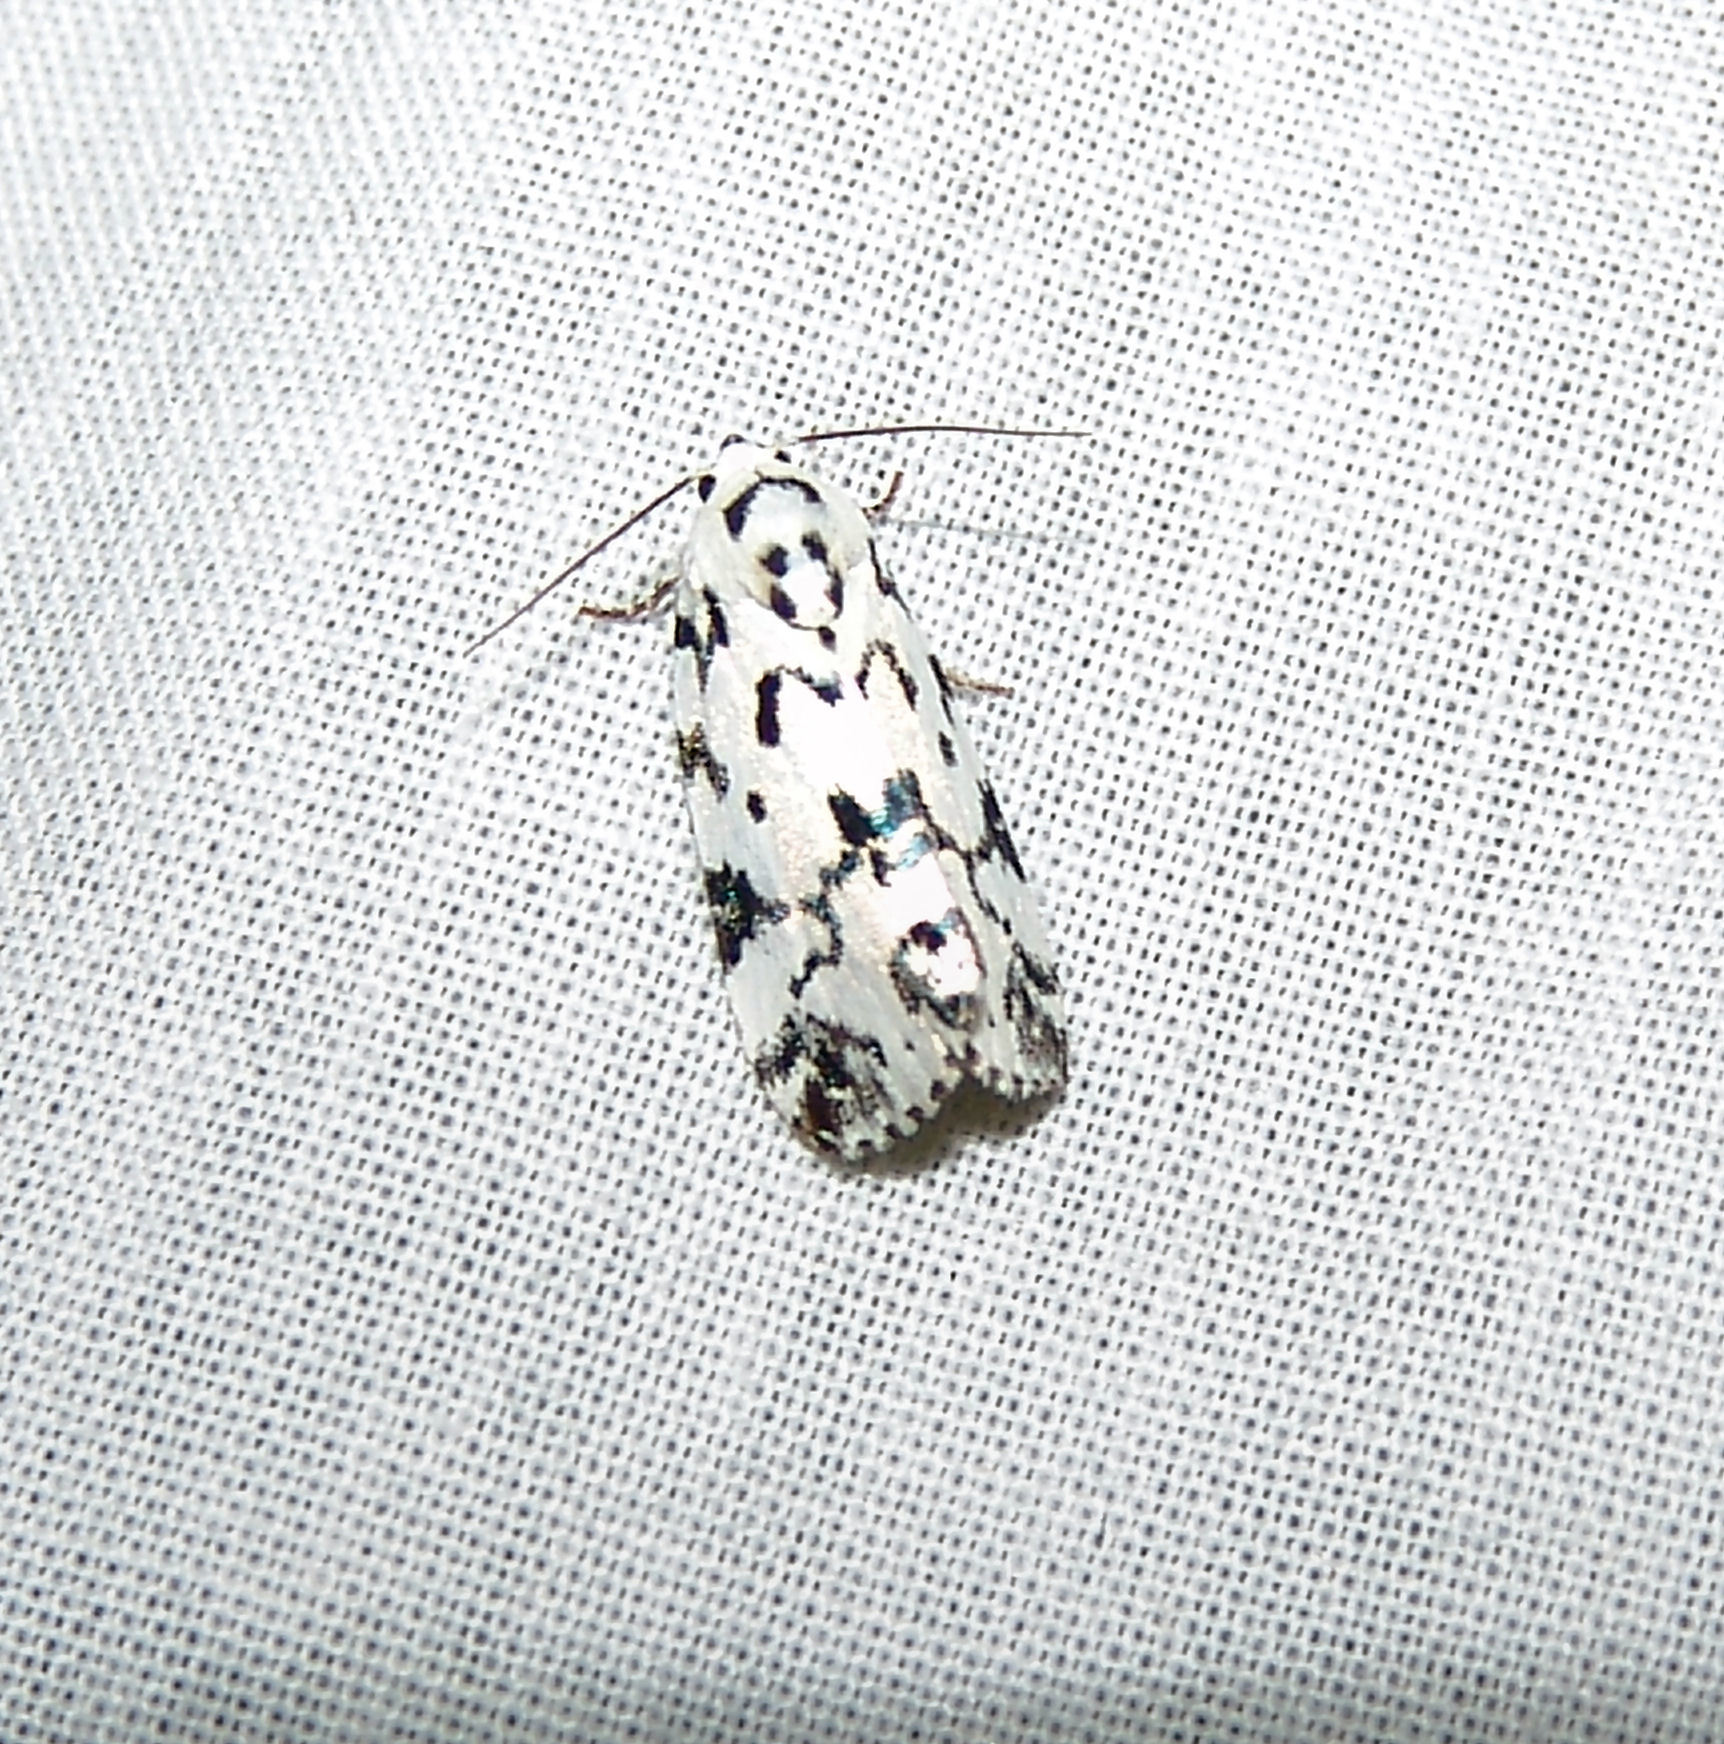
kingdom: Animalia
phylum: Arthropoda
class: Insecta
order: Lepidoptera
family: Noctuidae
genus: Polygrammate
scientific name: Polygrammate hebraeicum
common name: Hebrew moth
